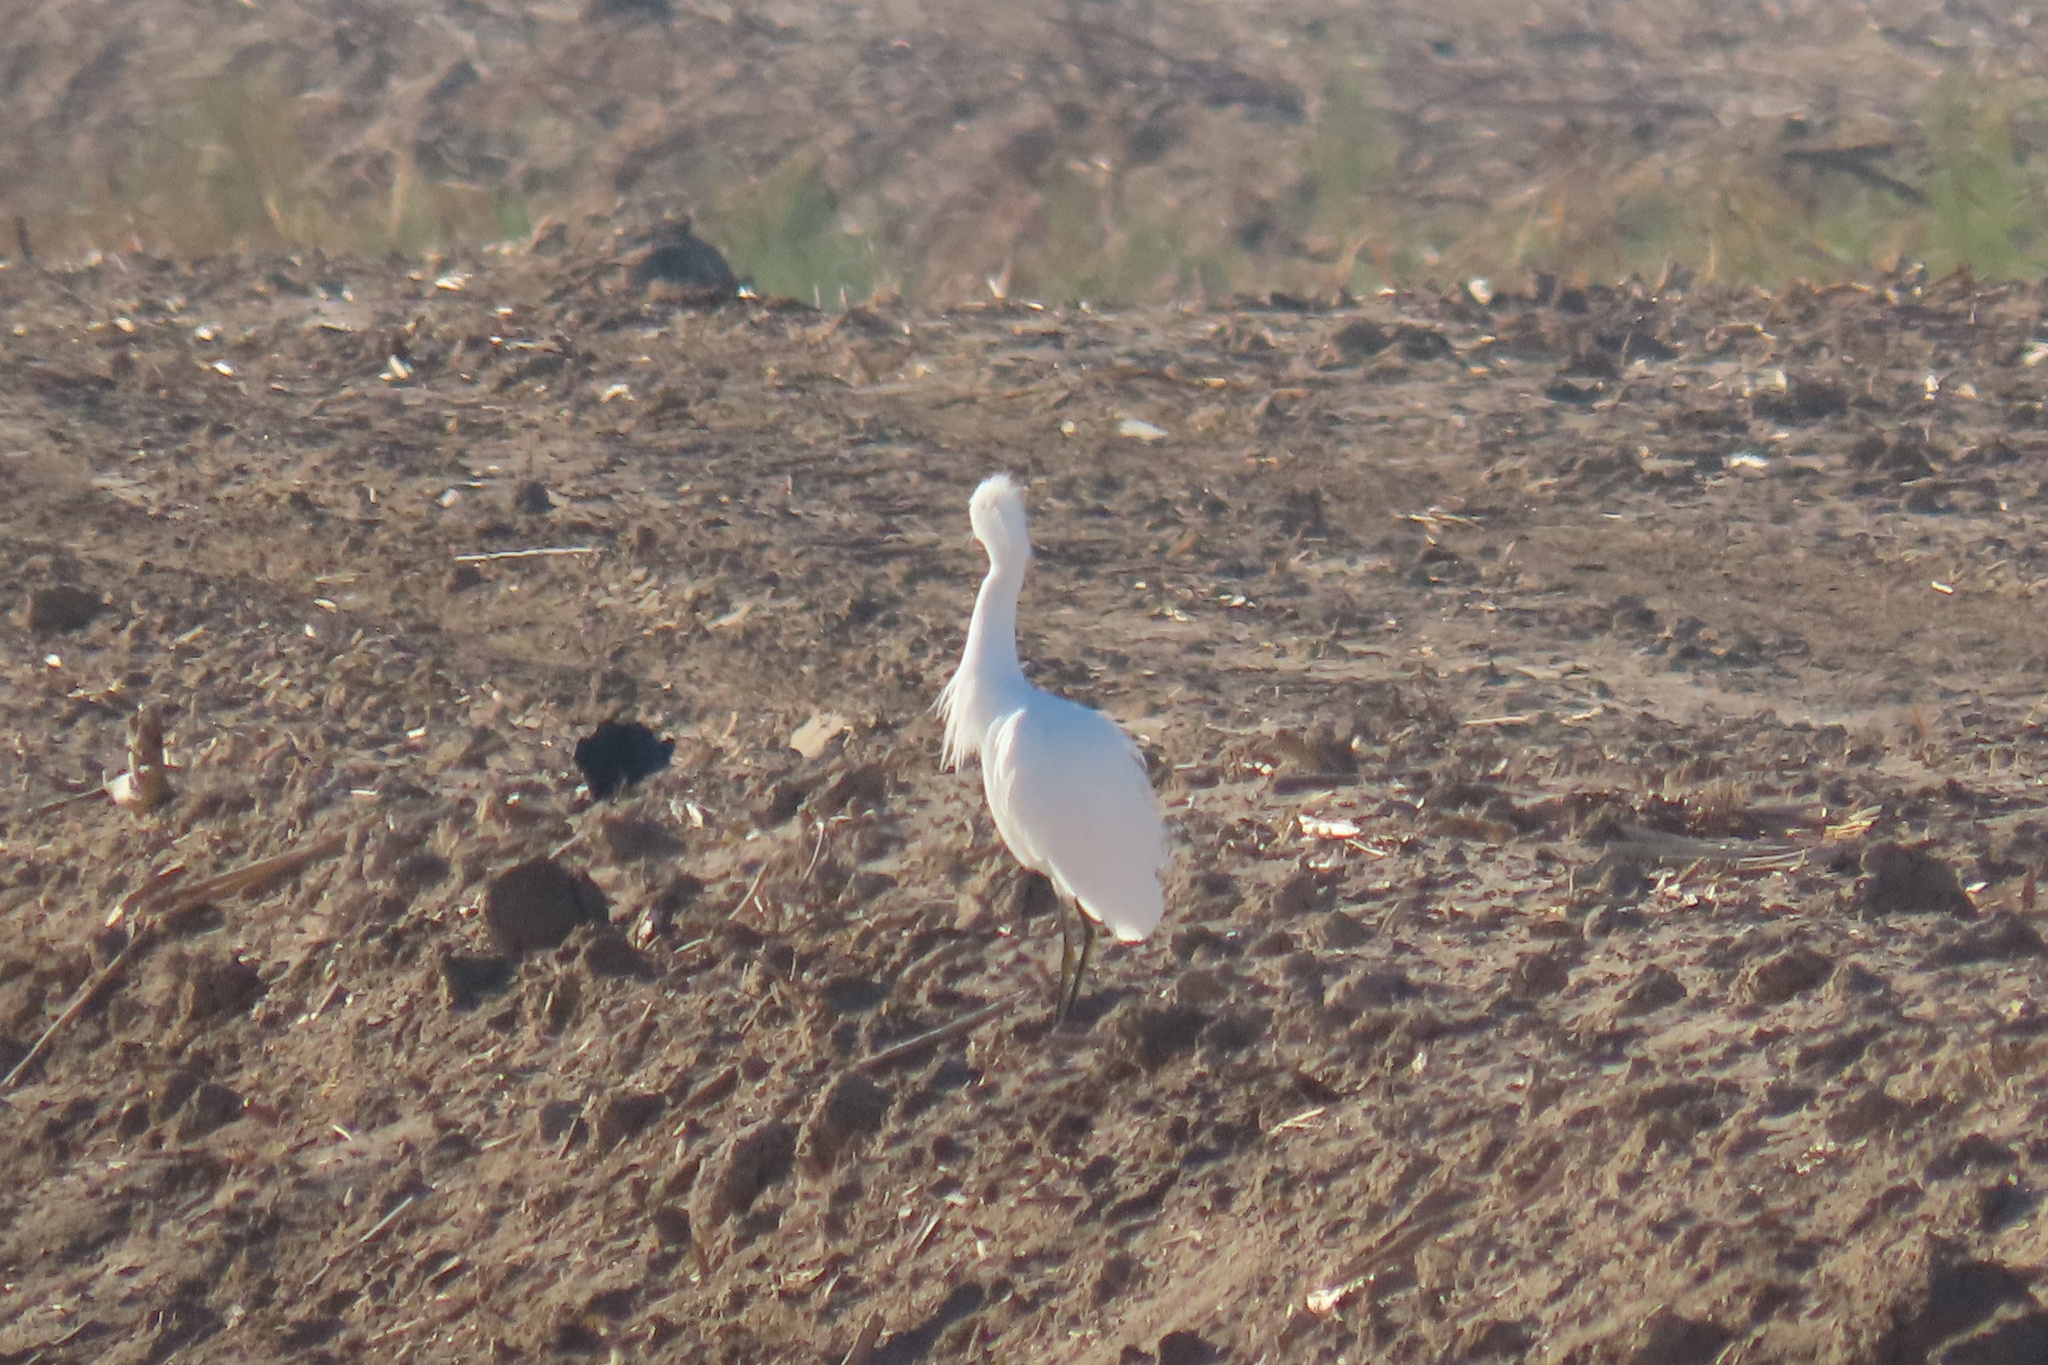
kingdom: Animalia
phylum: Chordata
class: Aves
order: Pelecaniformes
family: Ardeidae
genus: Egretta
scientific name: Egretta thula
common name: Snowy egret
